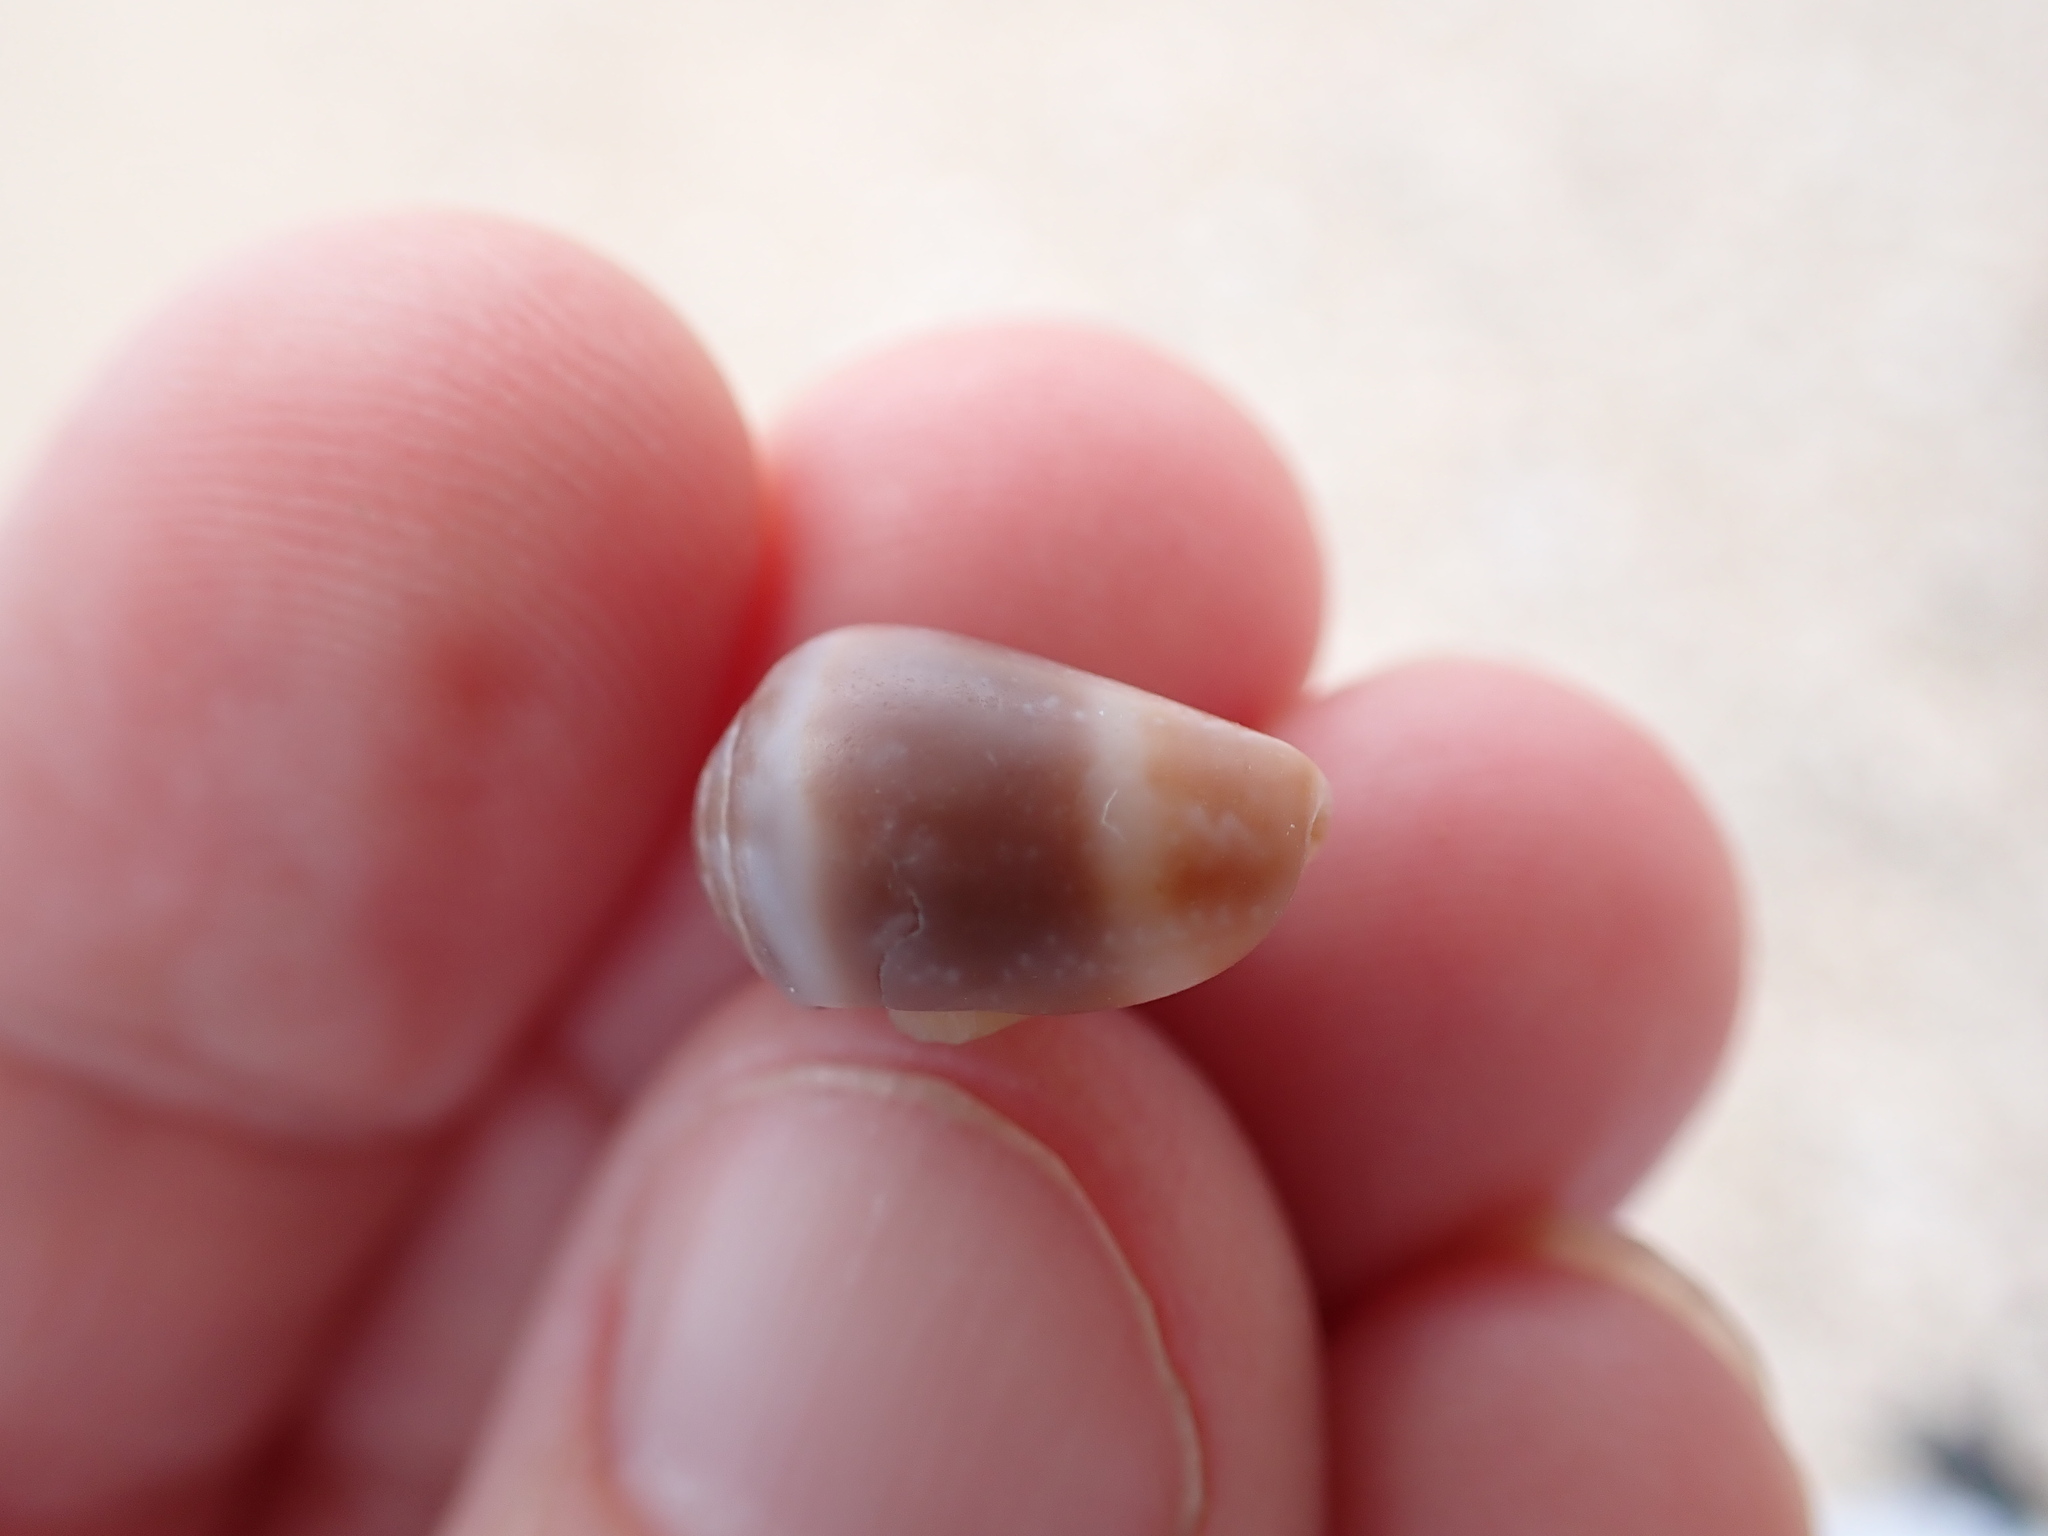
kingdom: Animalia
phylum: Mollusca
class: Gastropoda
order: Neogastropoda
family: Conidae
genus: Conus
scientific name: Conus ventricosus
